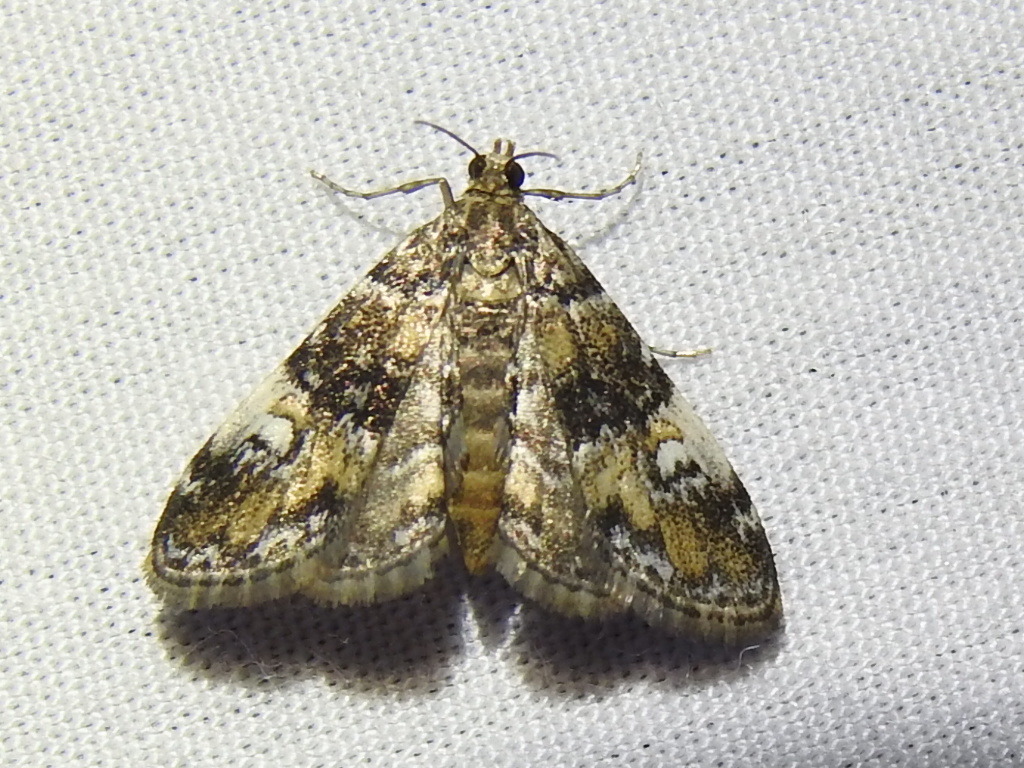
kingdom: Animalia
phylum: Arthropoda
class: Insecta
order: Lepidoptera
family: Crambidae
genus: Elophila
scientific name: Elophila obliteralis
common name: Waterlily leafcutter moth
